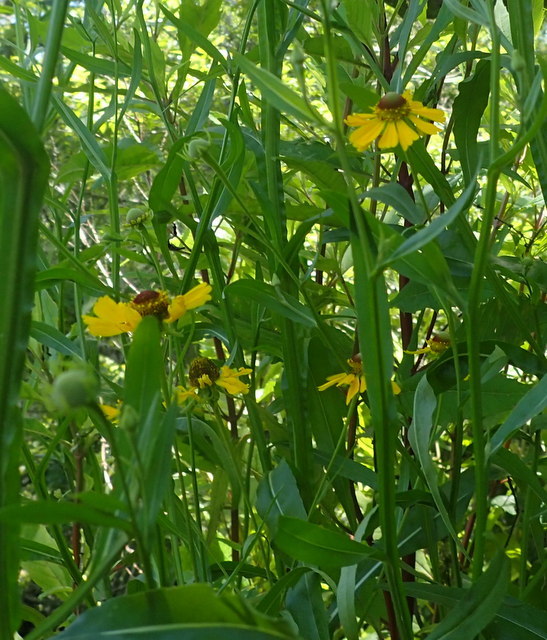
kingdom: Plantae
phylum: Tracheophyta
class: Magnoliopsida
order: Asterales
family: Asteraceae
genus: Helenium
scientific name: Helenium flexuosum
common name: Naked-flowered sneezeweed
